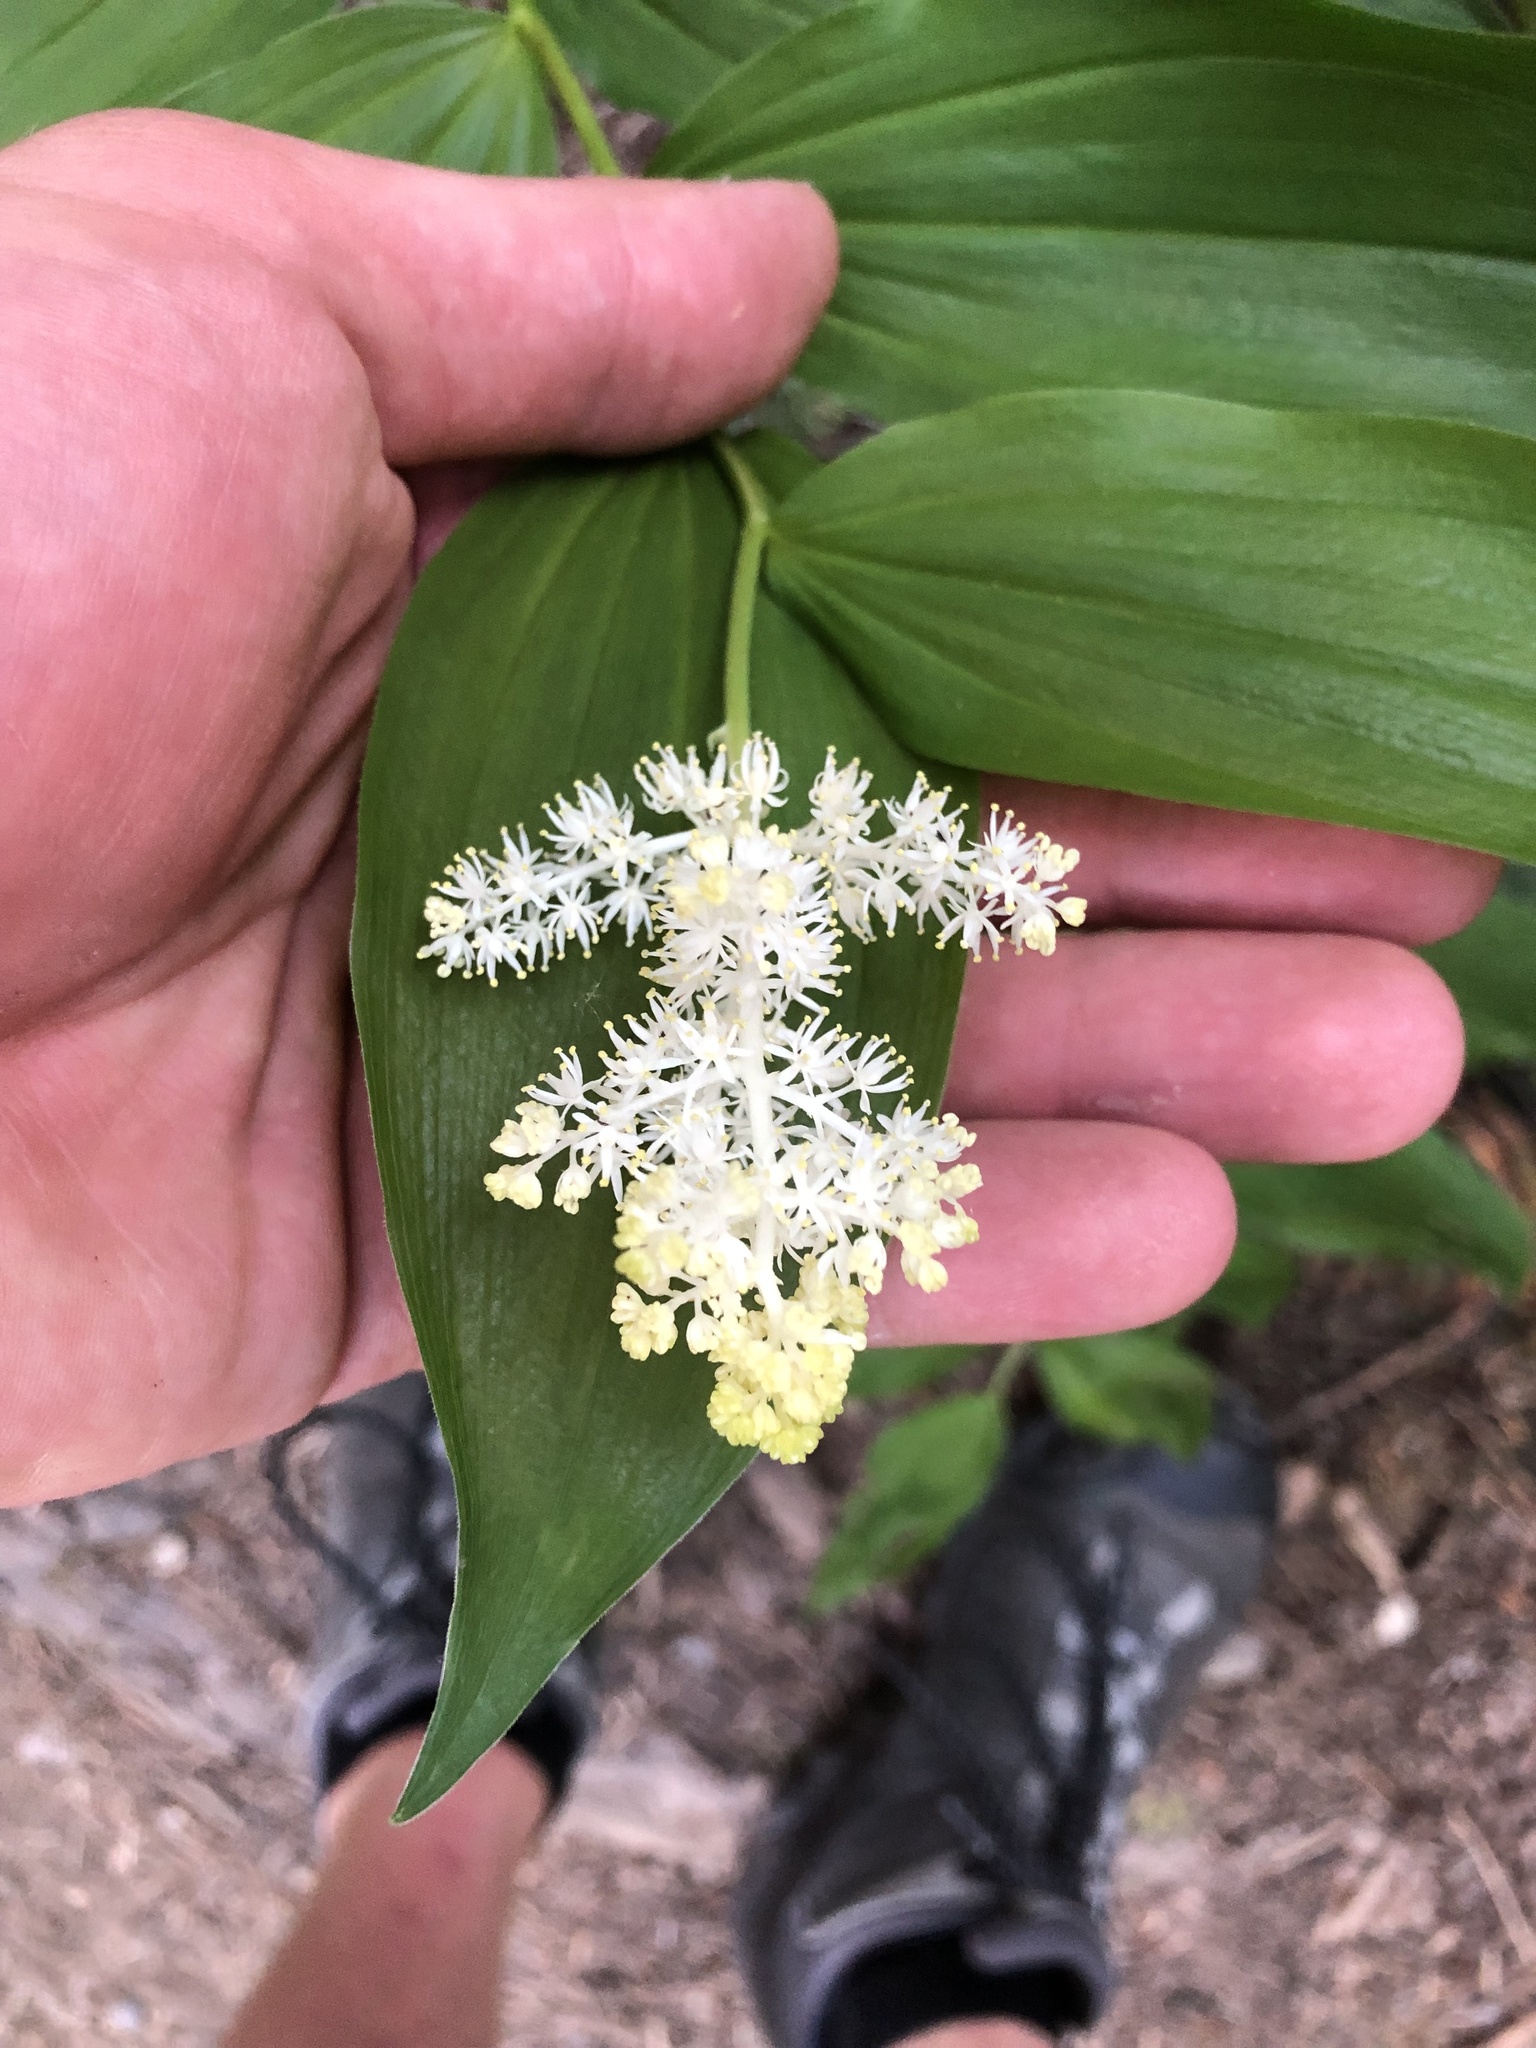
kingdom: Plantae
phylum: Tracheophyta
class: Liliopsida
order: Asparagales
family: Asparagaceae
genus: Maianthemum
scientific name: Maianthemum racemosum
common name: False spikenard
